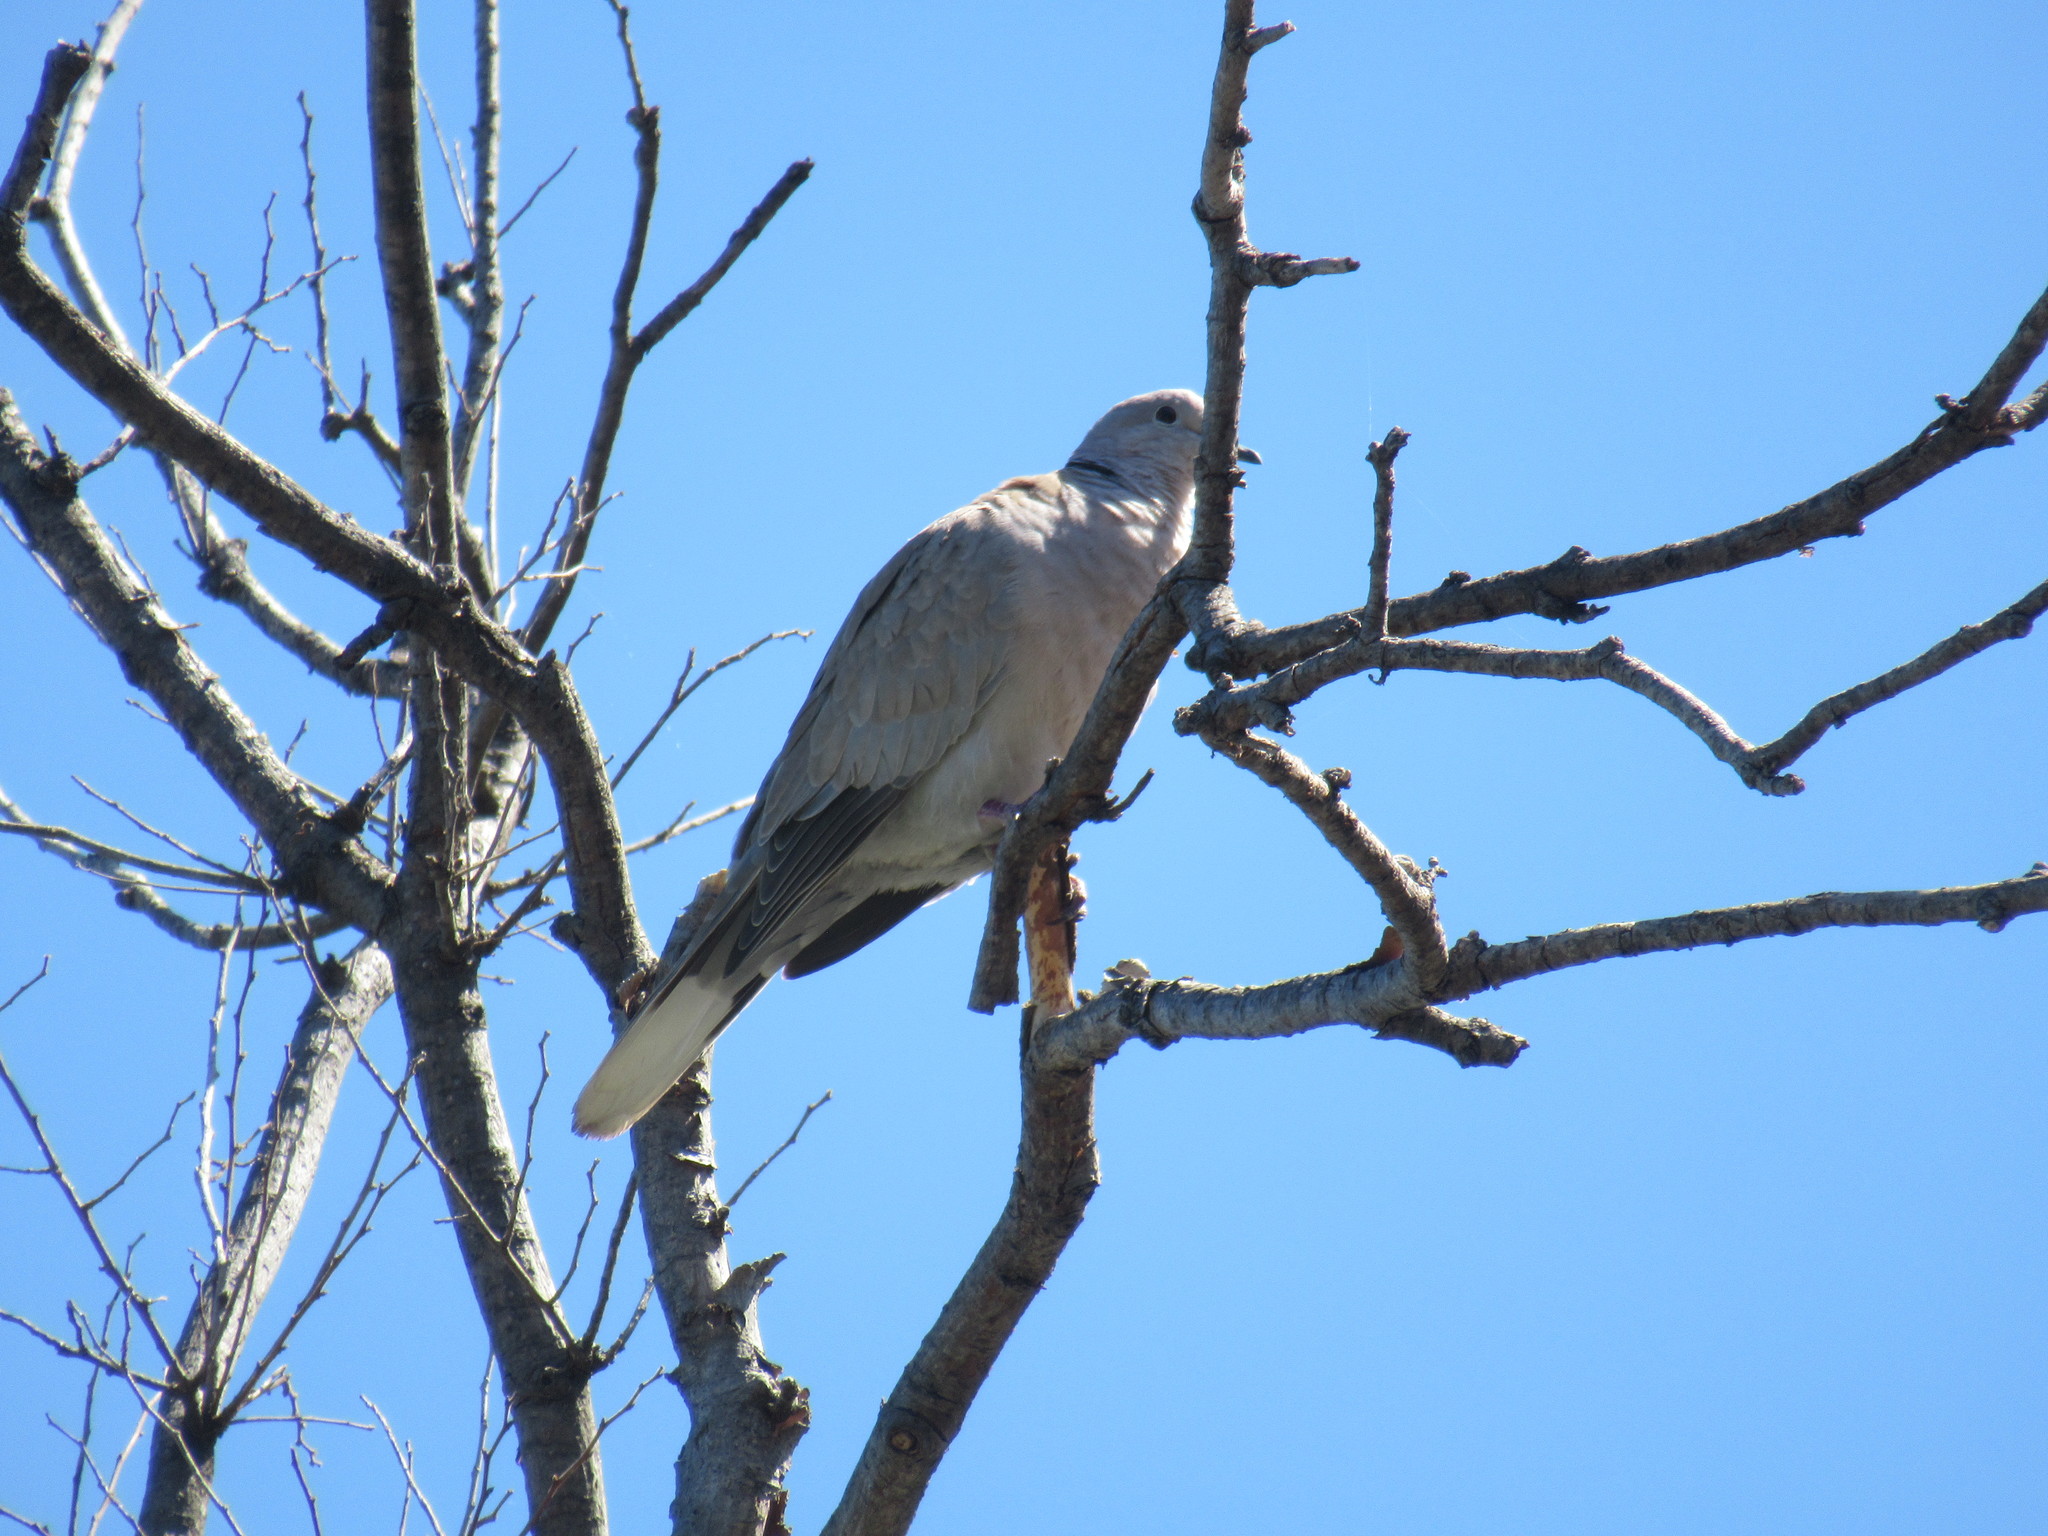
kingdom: Animalia
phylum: Chordata
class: Aves
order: Columbiformes
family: Columbidae
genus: Streptopelia
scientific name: Streptopelia decaocto
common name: Eurasian collared dove
